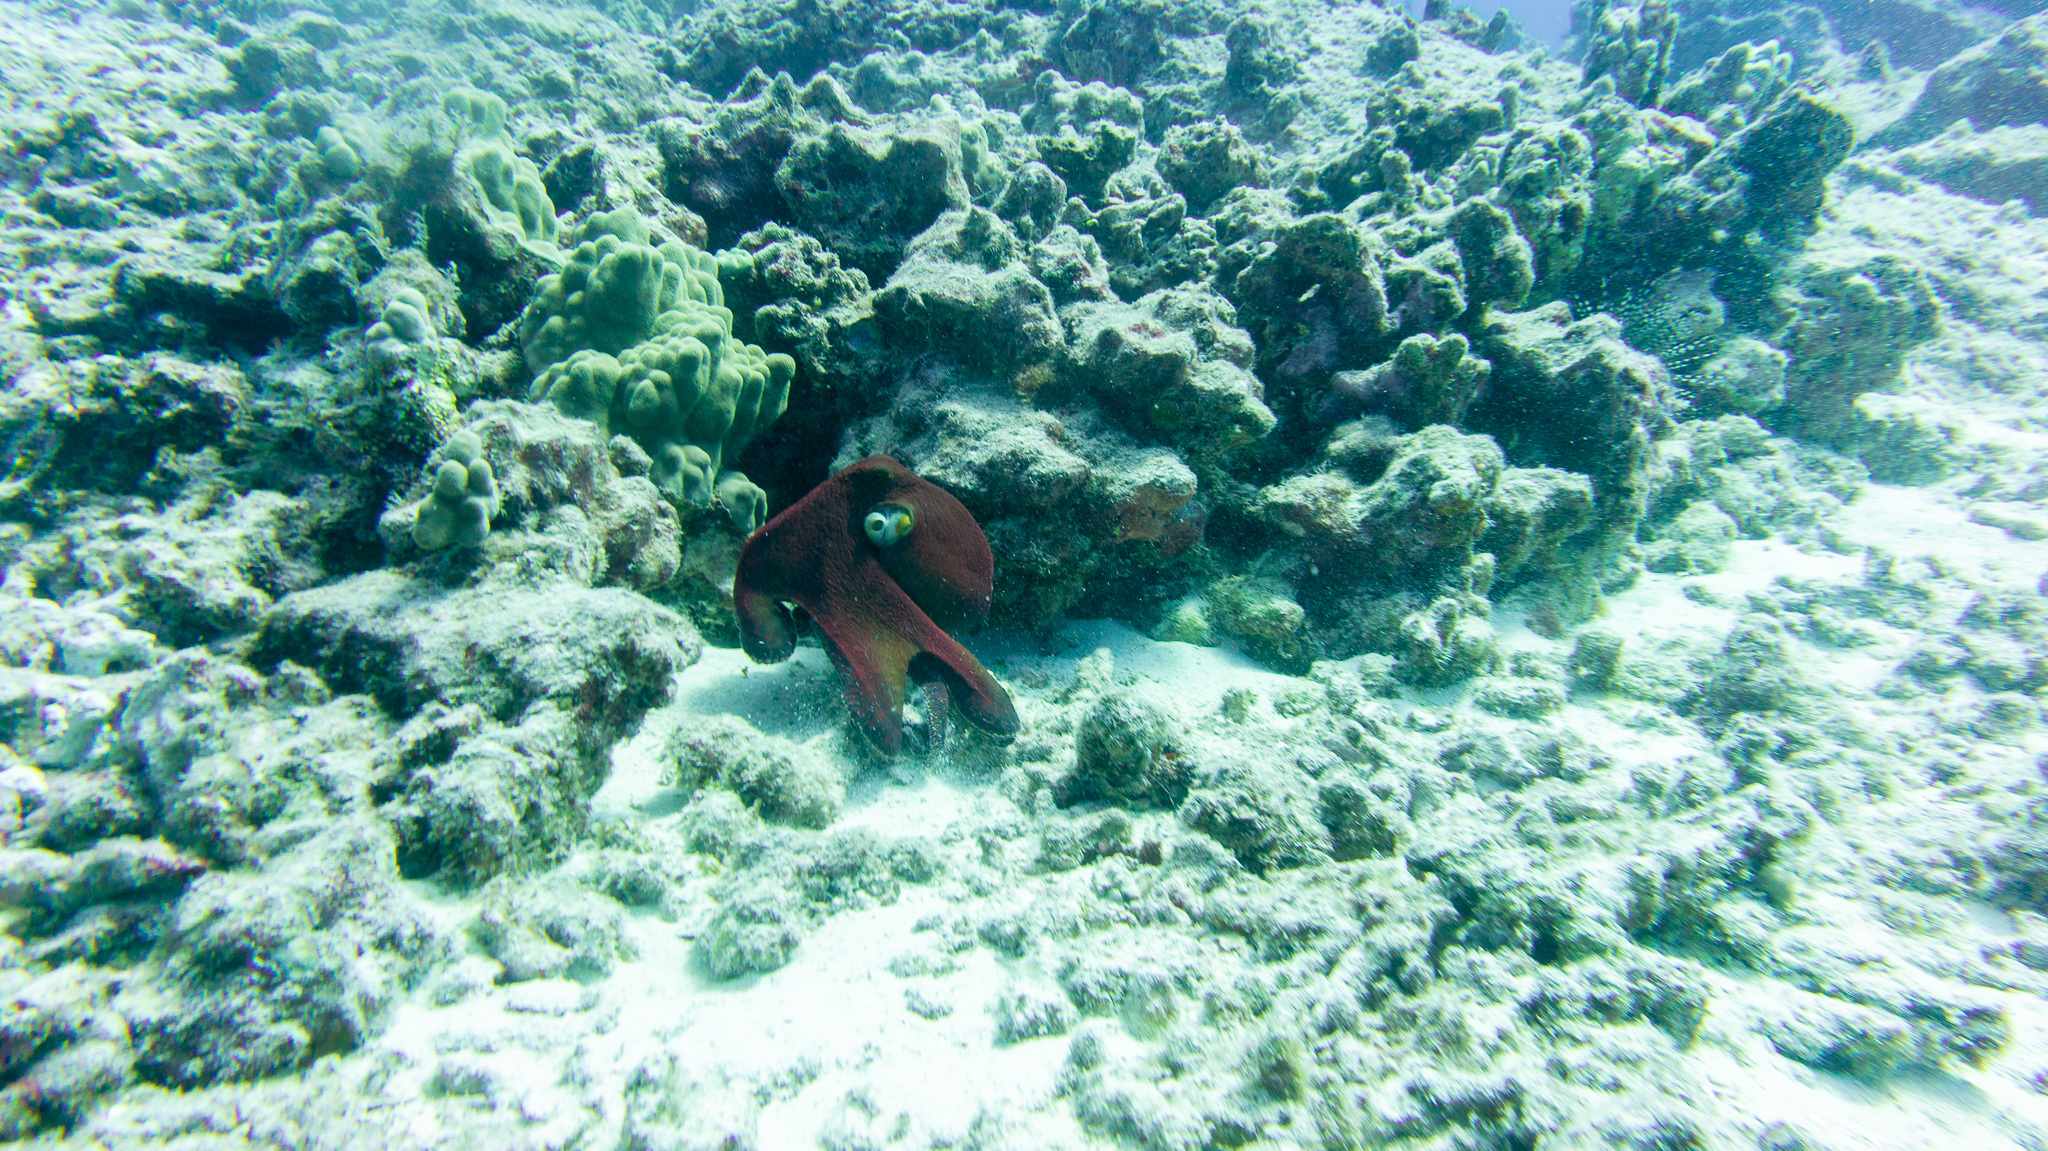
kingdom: Animalia
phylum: Mollusca
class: Cephalopoda
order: Octopoda
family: Octopodidae
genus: Octopus
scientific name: Octopus cyanea
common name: Cyane's octopus
